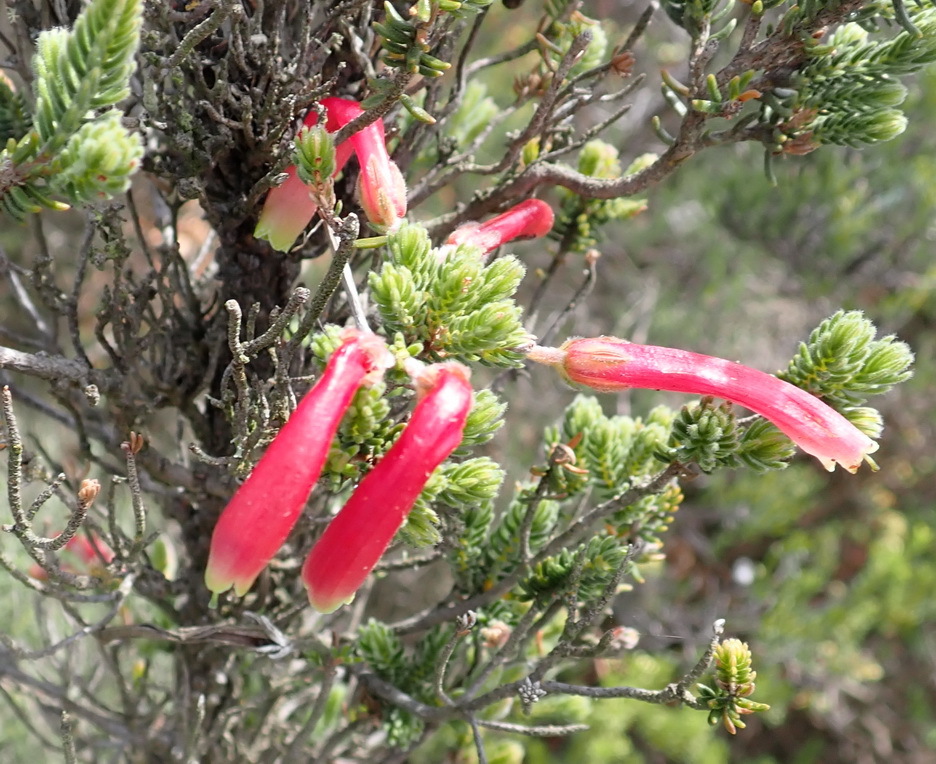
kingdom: Plantae
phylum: Tracheophyta
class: Magnoliopsida
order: Ericales
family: Ericaceae
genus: Erica
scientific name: Erica discolor
